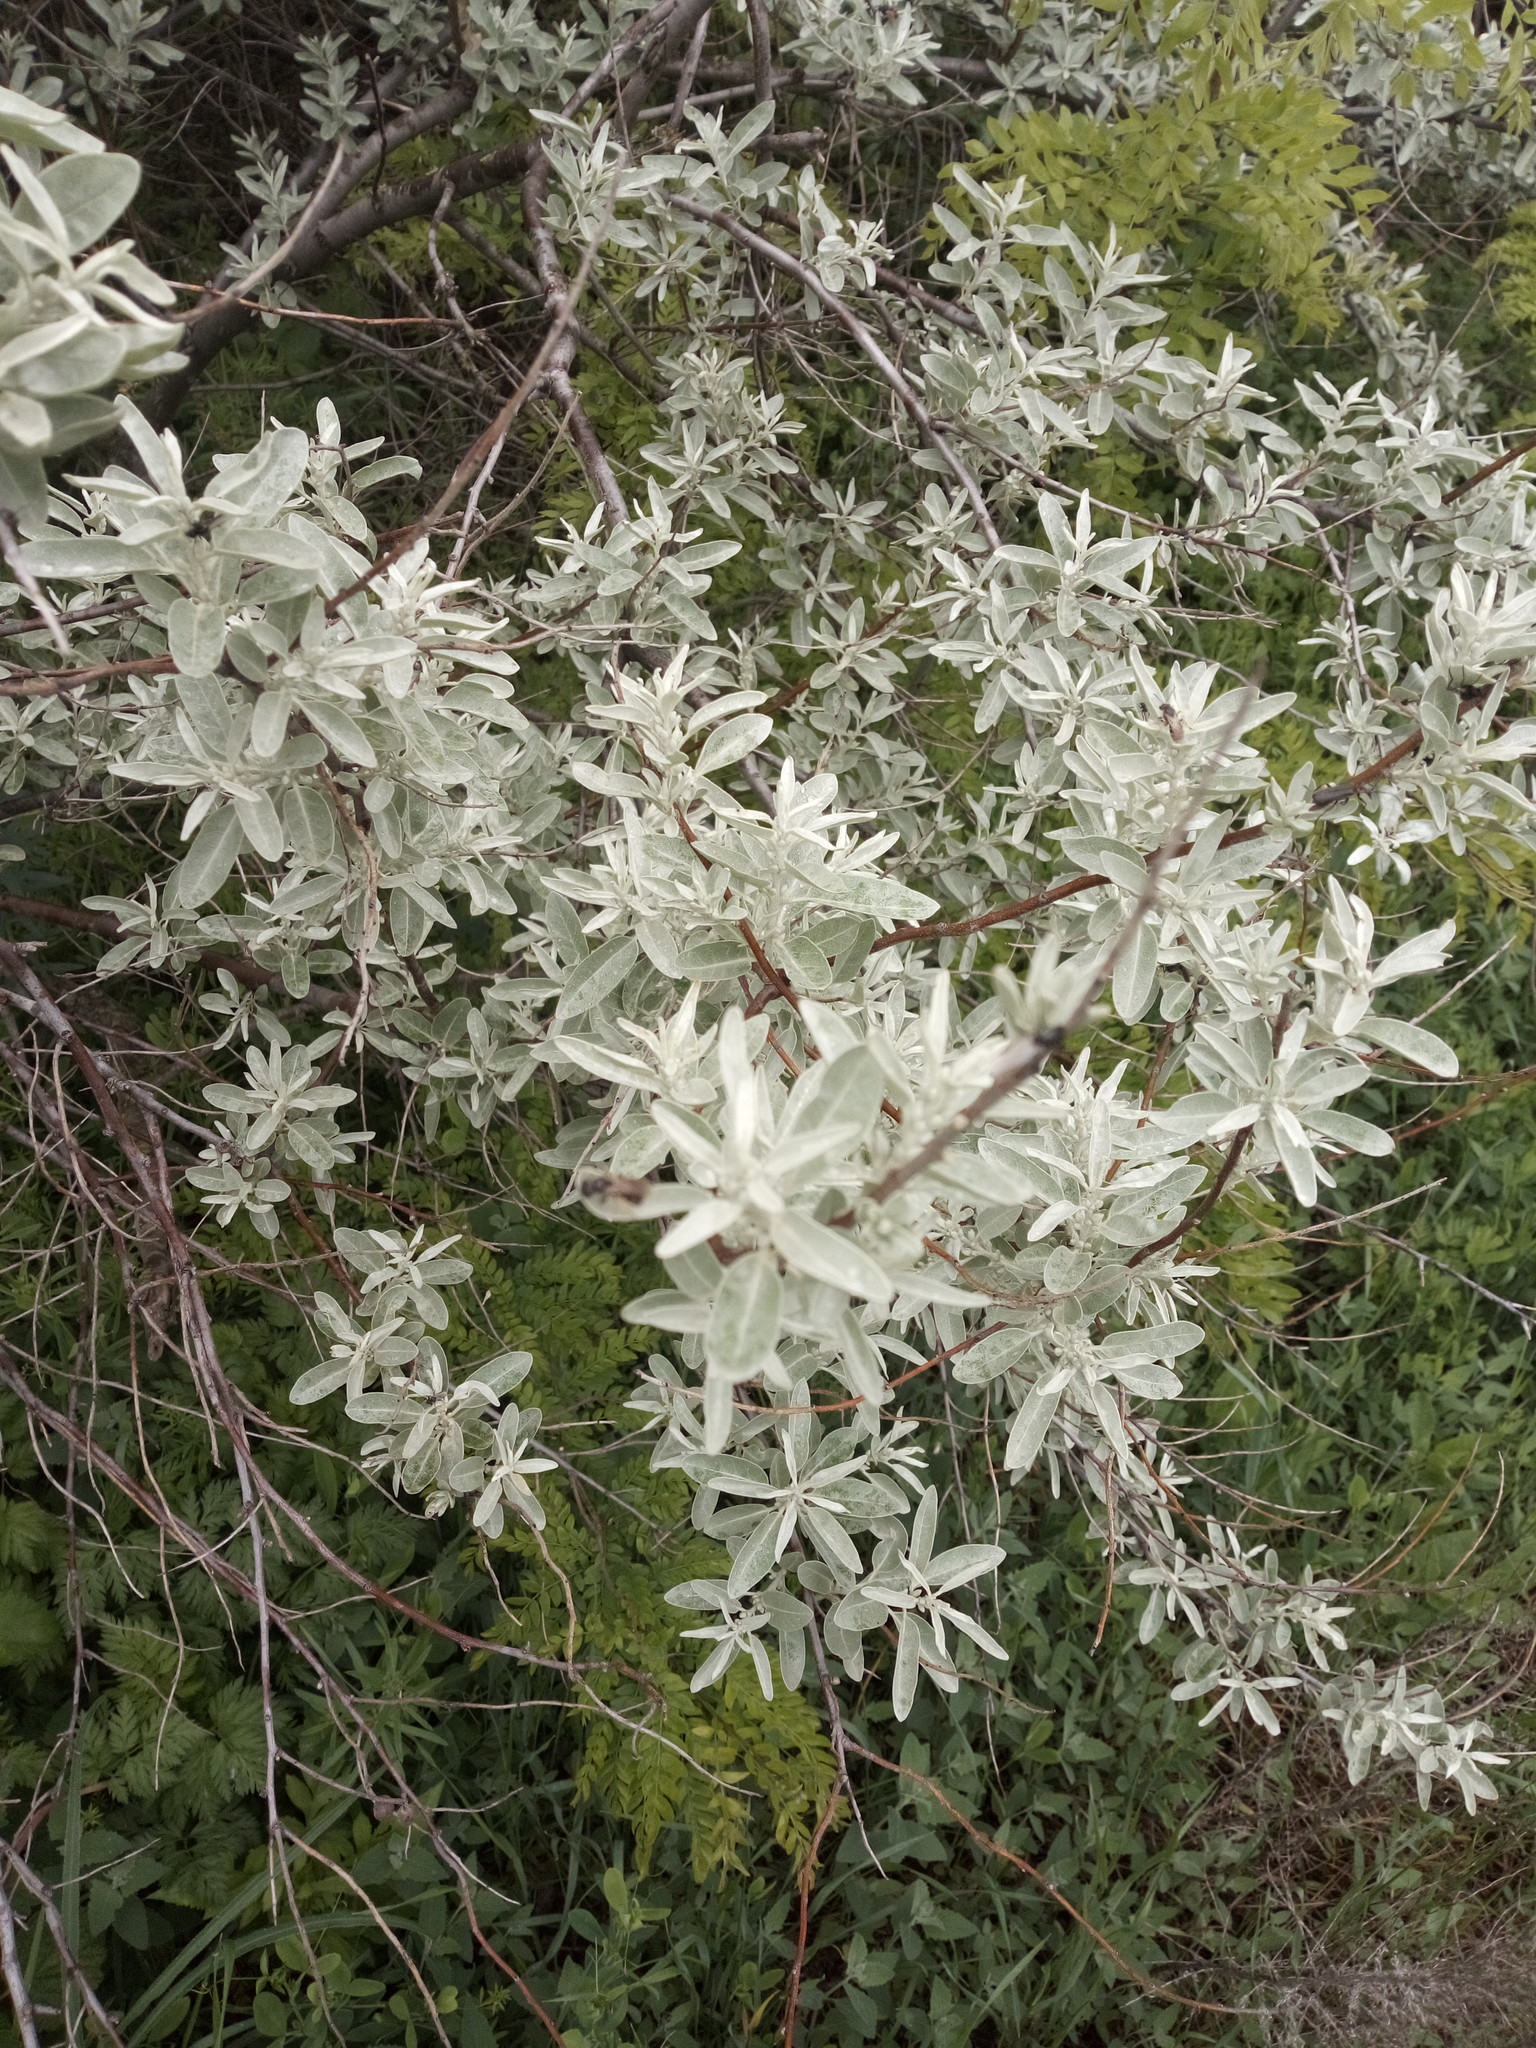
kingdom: Plantae
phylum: Tracheophyta
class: Magnoliopsida
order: Rosales
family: Elaeagnaceae
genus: Elaeagnus
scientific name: Elaeagnus angustifolia
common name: Russian olive
